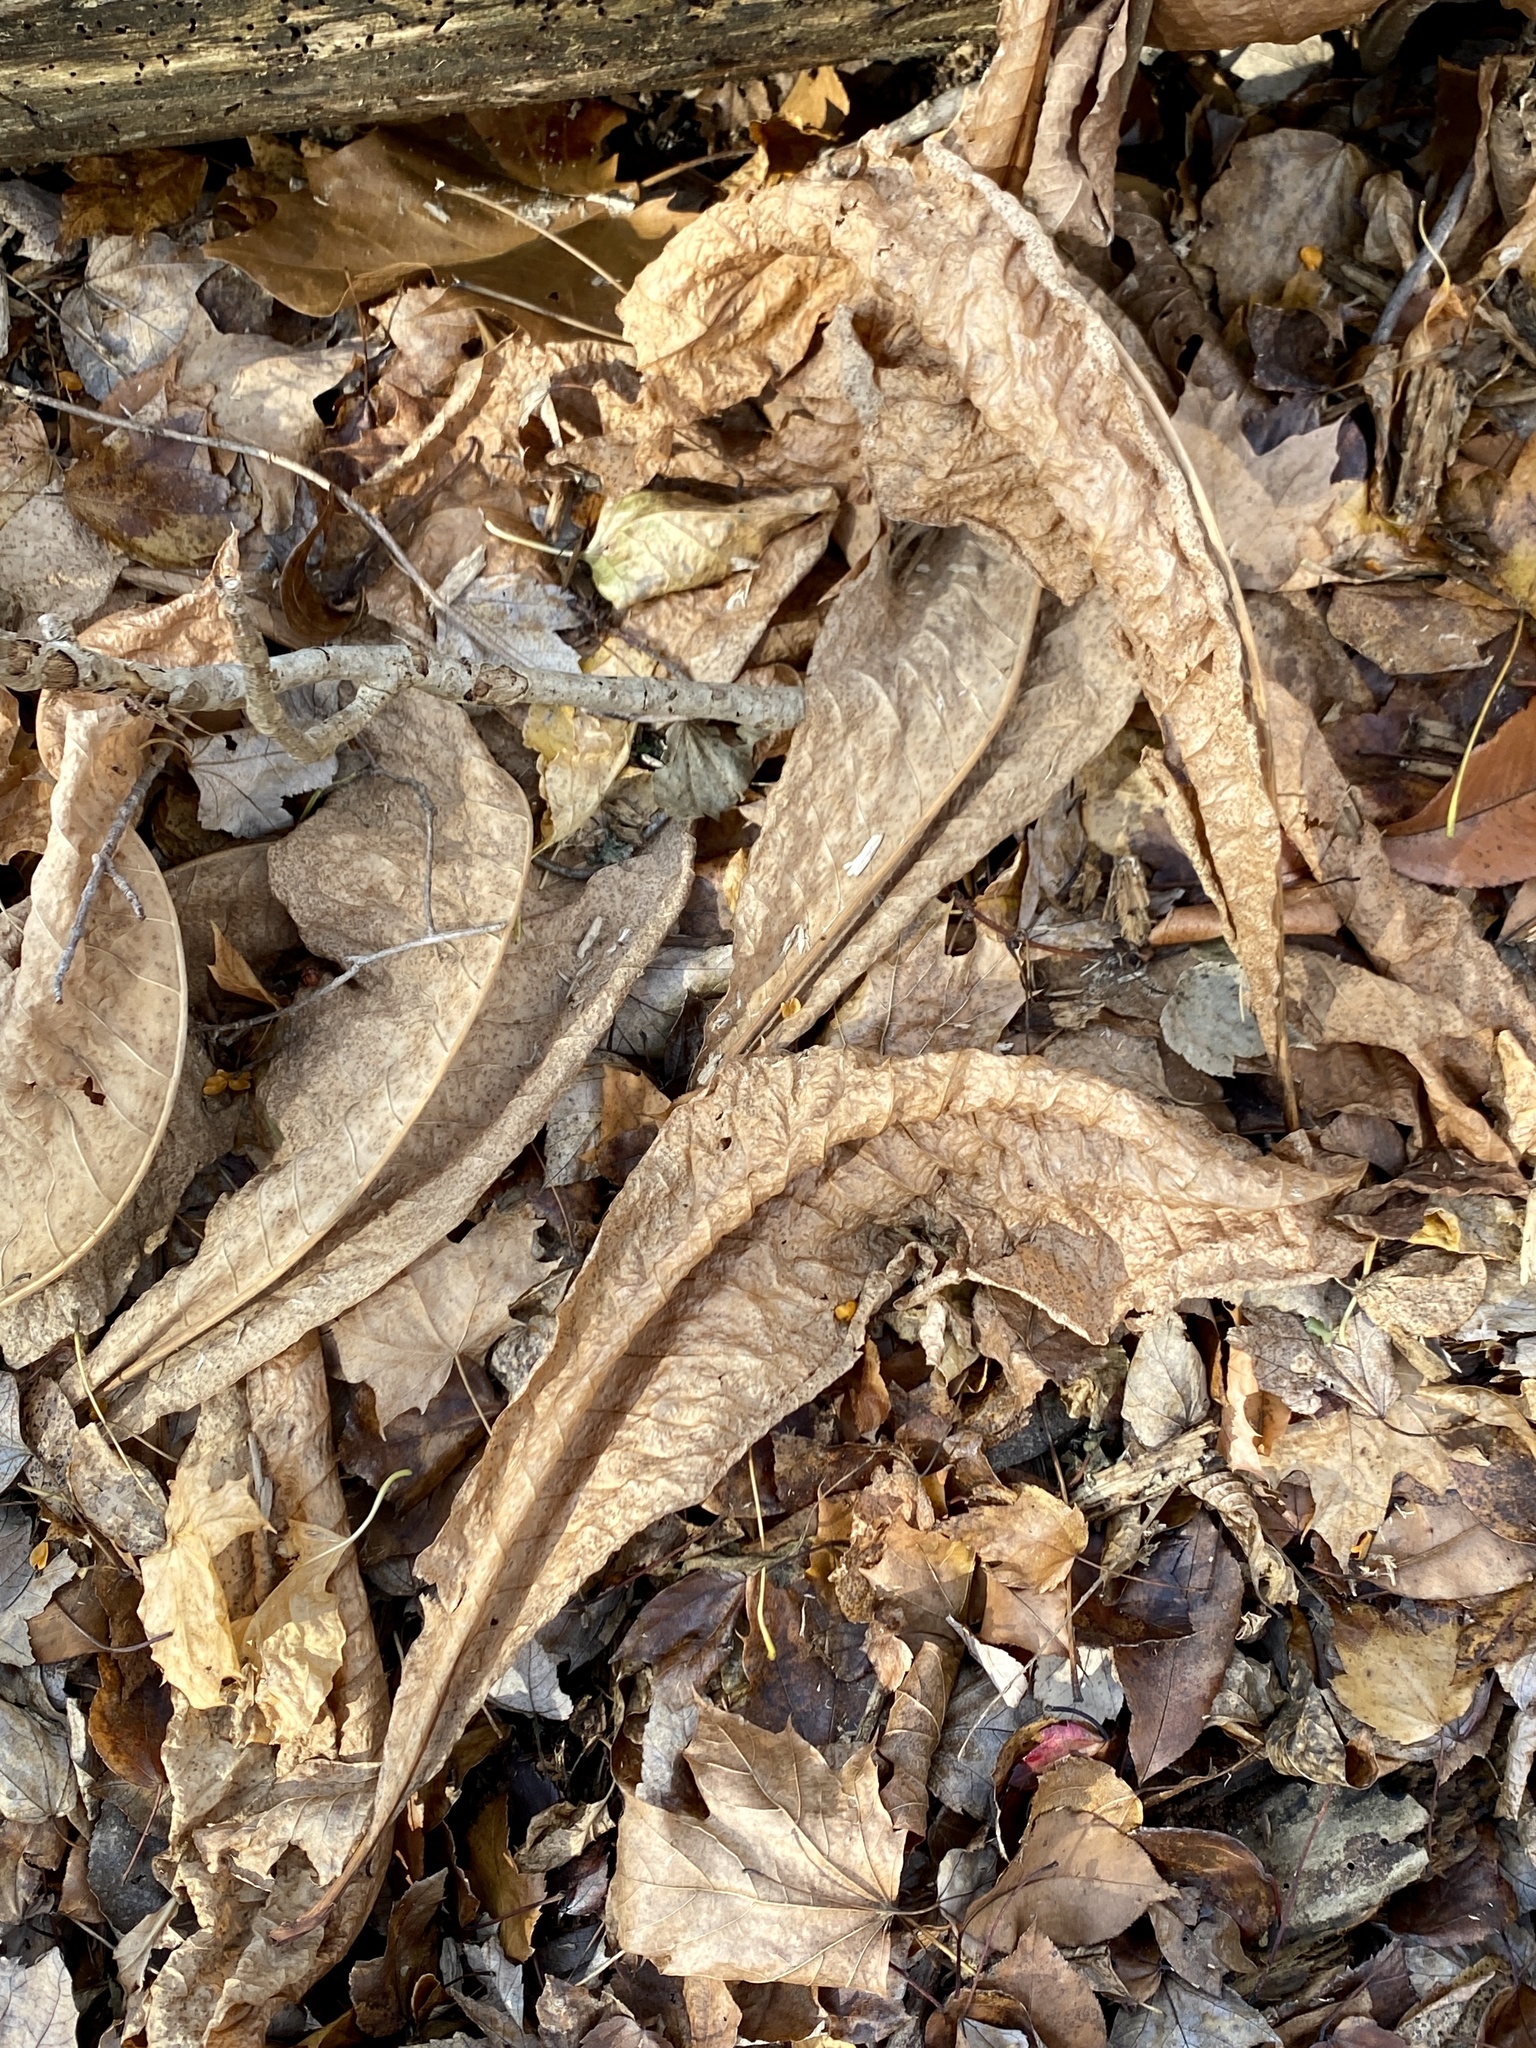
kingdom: Plantae
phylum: Tracheophyta
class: Magnoliopsida
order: Magnoliales
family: Magnoliaceae
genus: Magnolia
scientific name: Magnolia tripetala
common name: Umbrella magnolia
